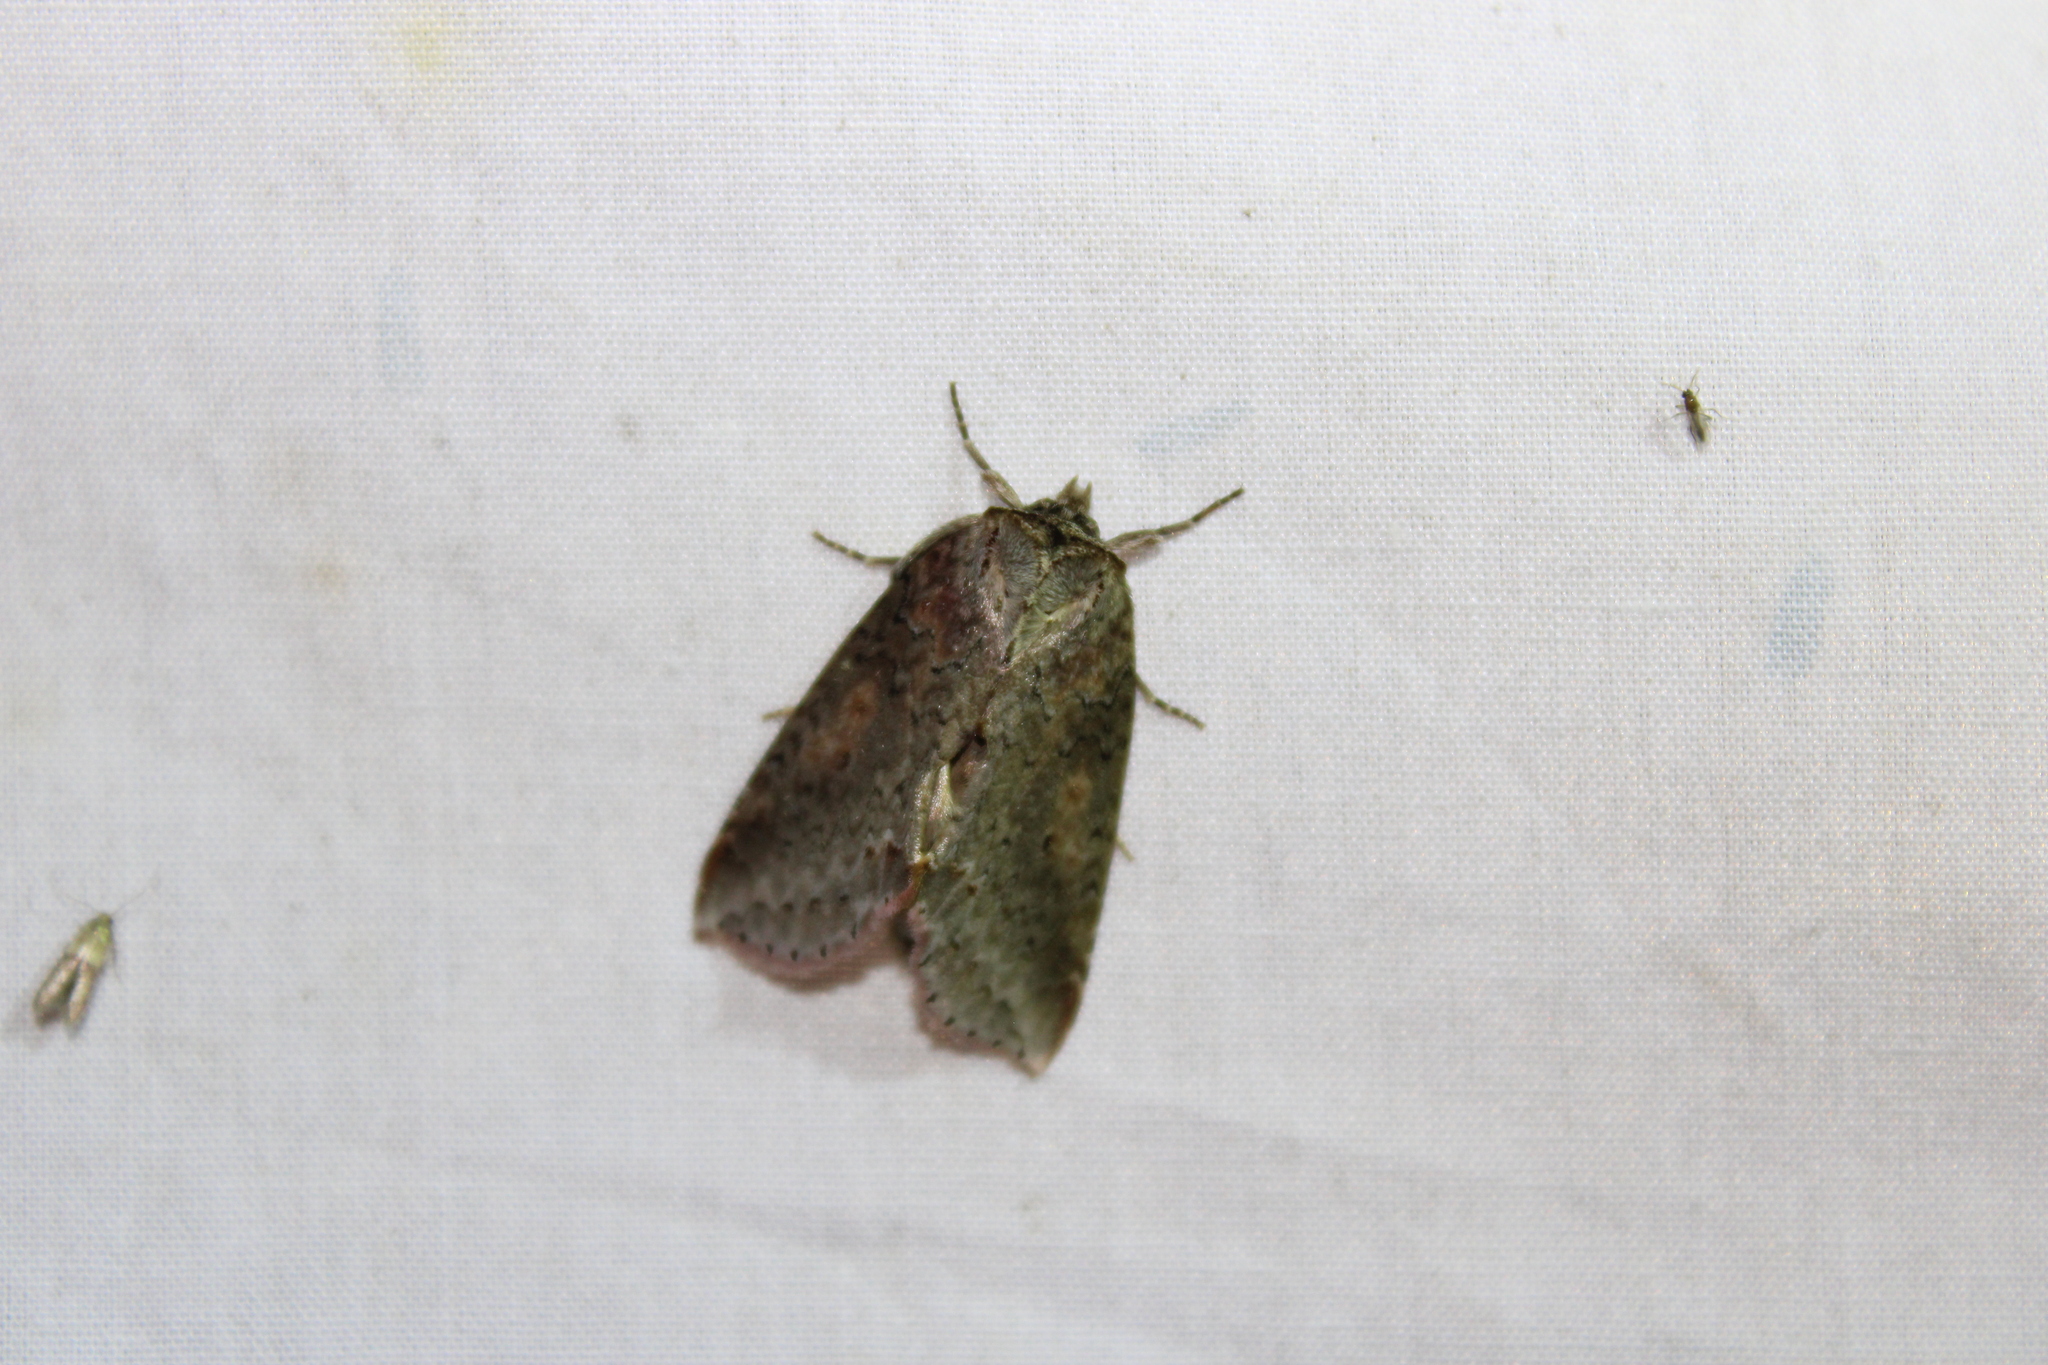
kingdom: Animalia
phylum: Arthropoda
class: Insecta
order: Lepidoptera
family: Drepanidae
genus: Pseudothyatira
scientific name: Pseudothyatira cymatophoroides
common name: Tufted thyatirid moth
